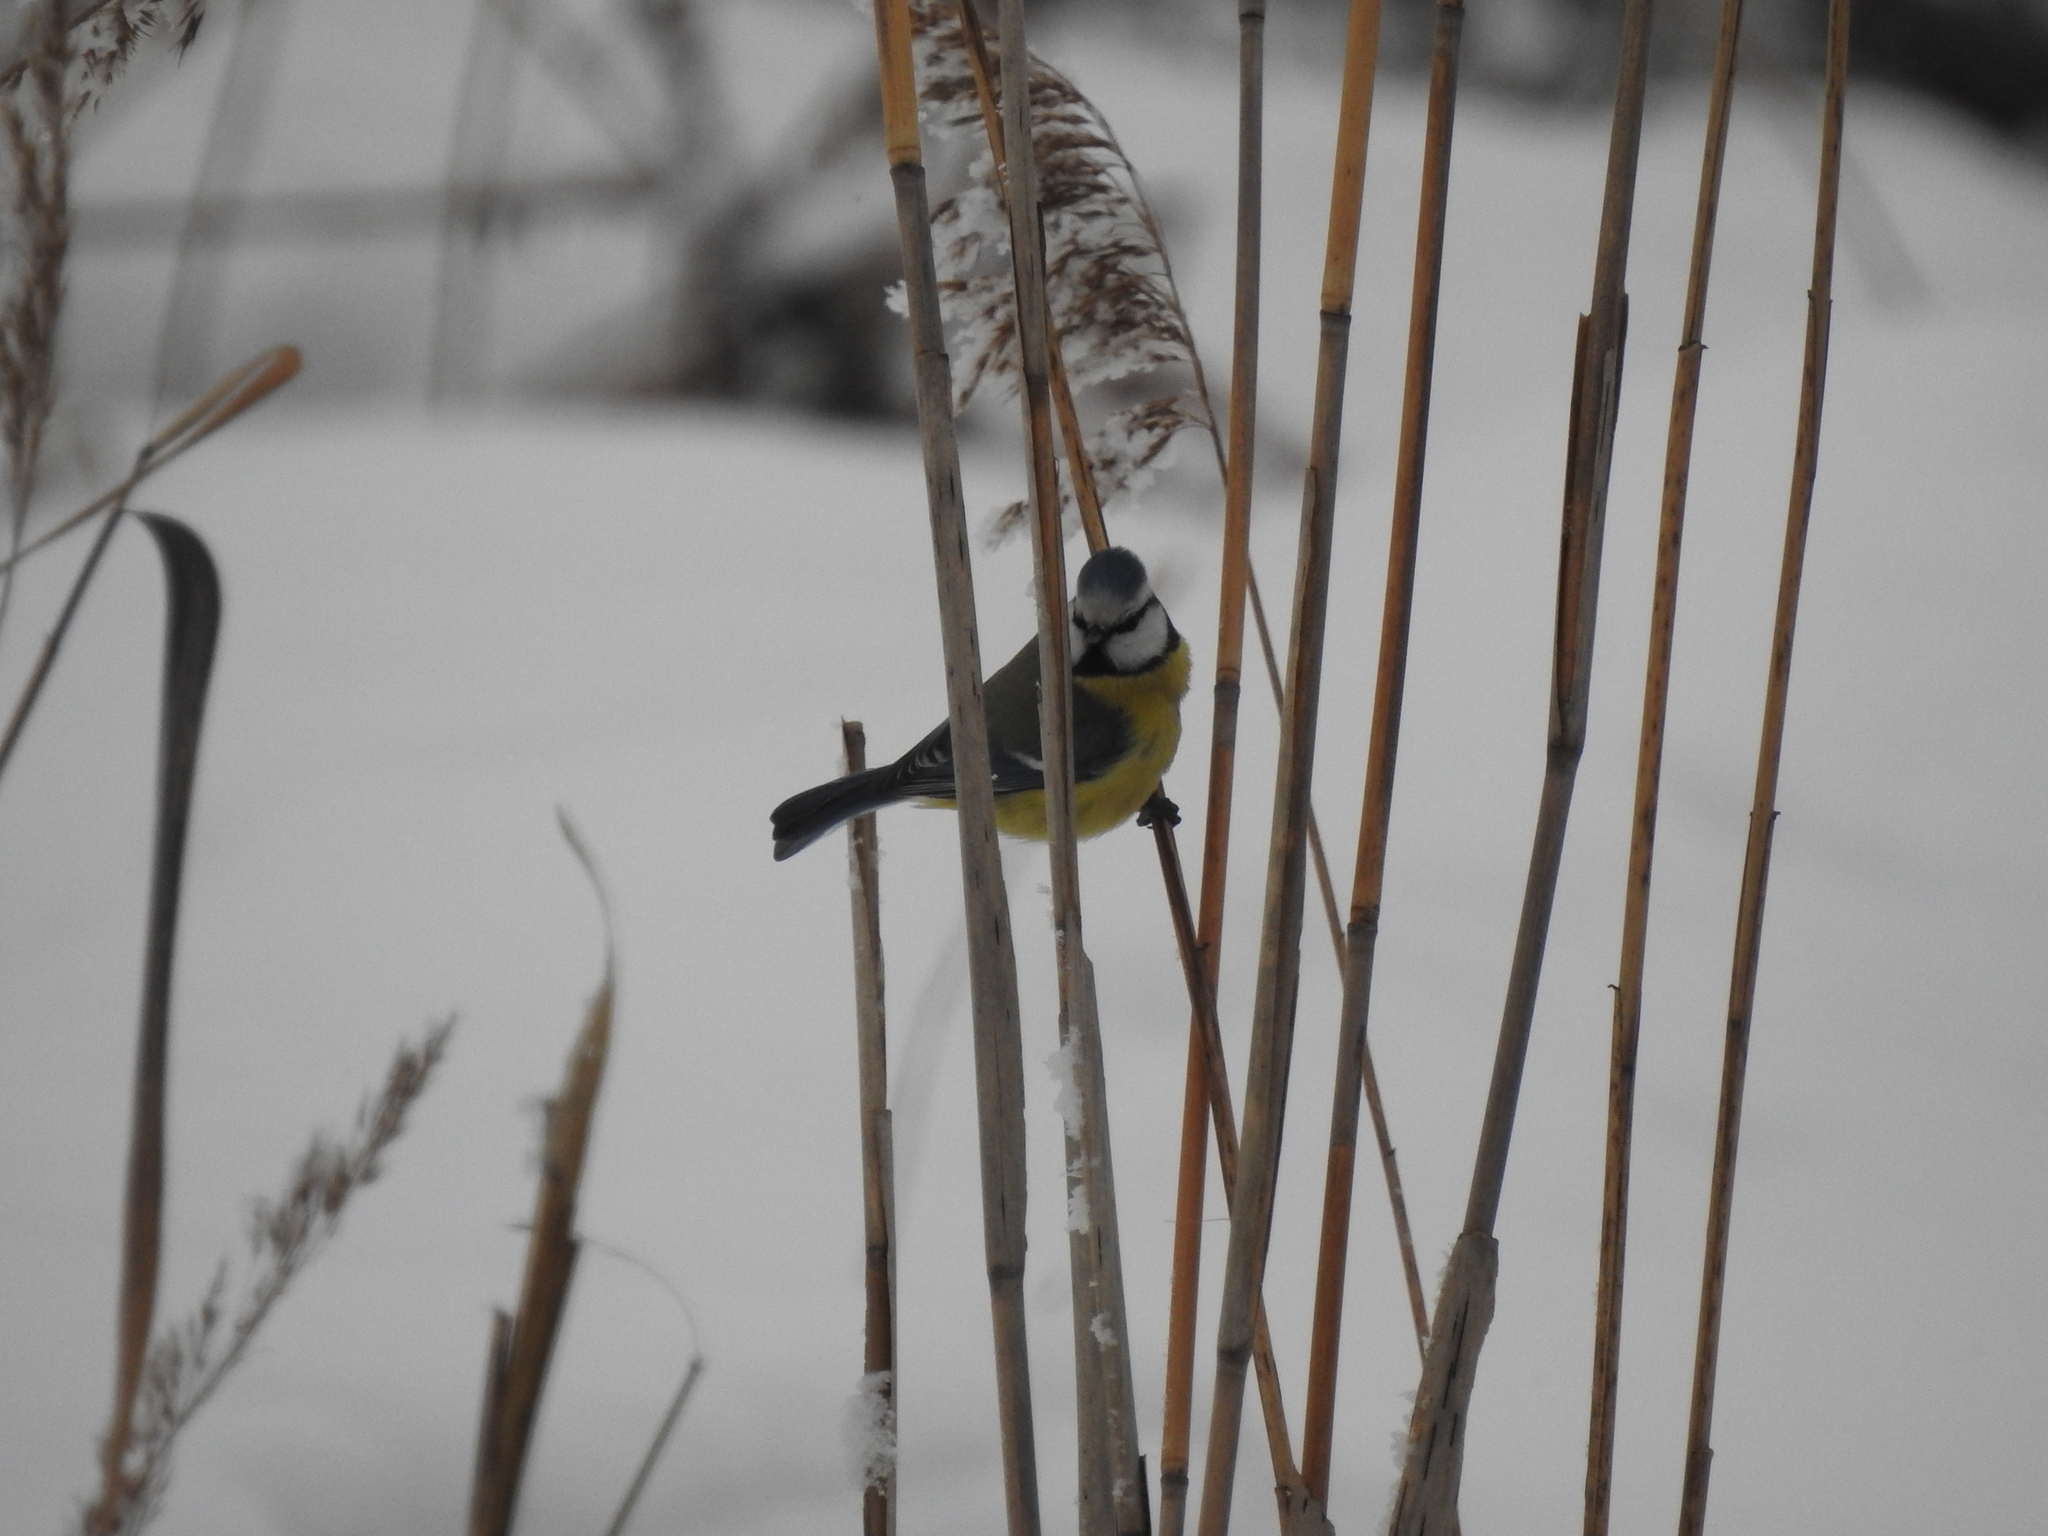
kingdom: Animalia
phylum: Chordata
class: Aves
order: Passeriformes
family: Paridae
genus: Cyanistes
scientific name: Cyanistes caeruleus
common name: Eurasian blue tit
